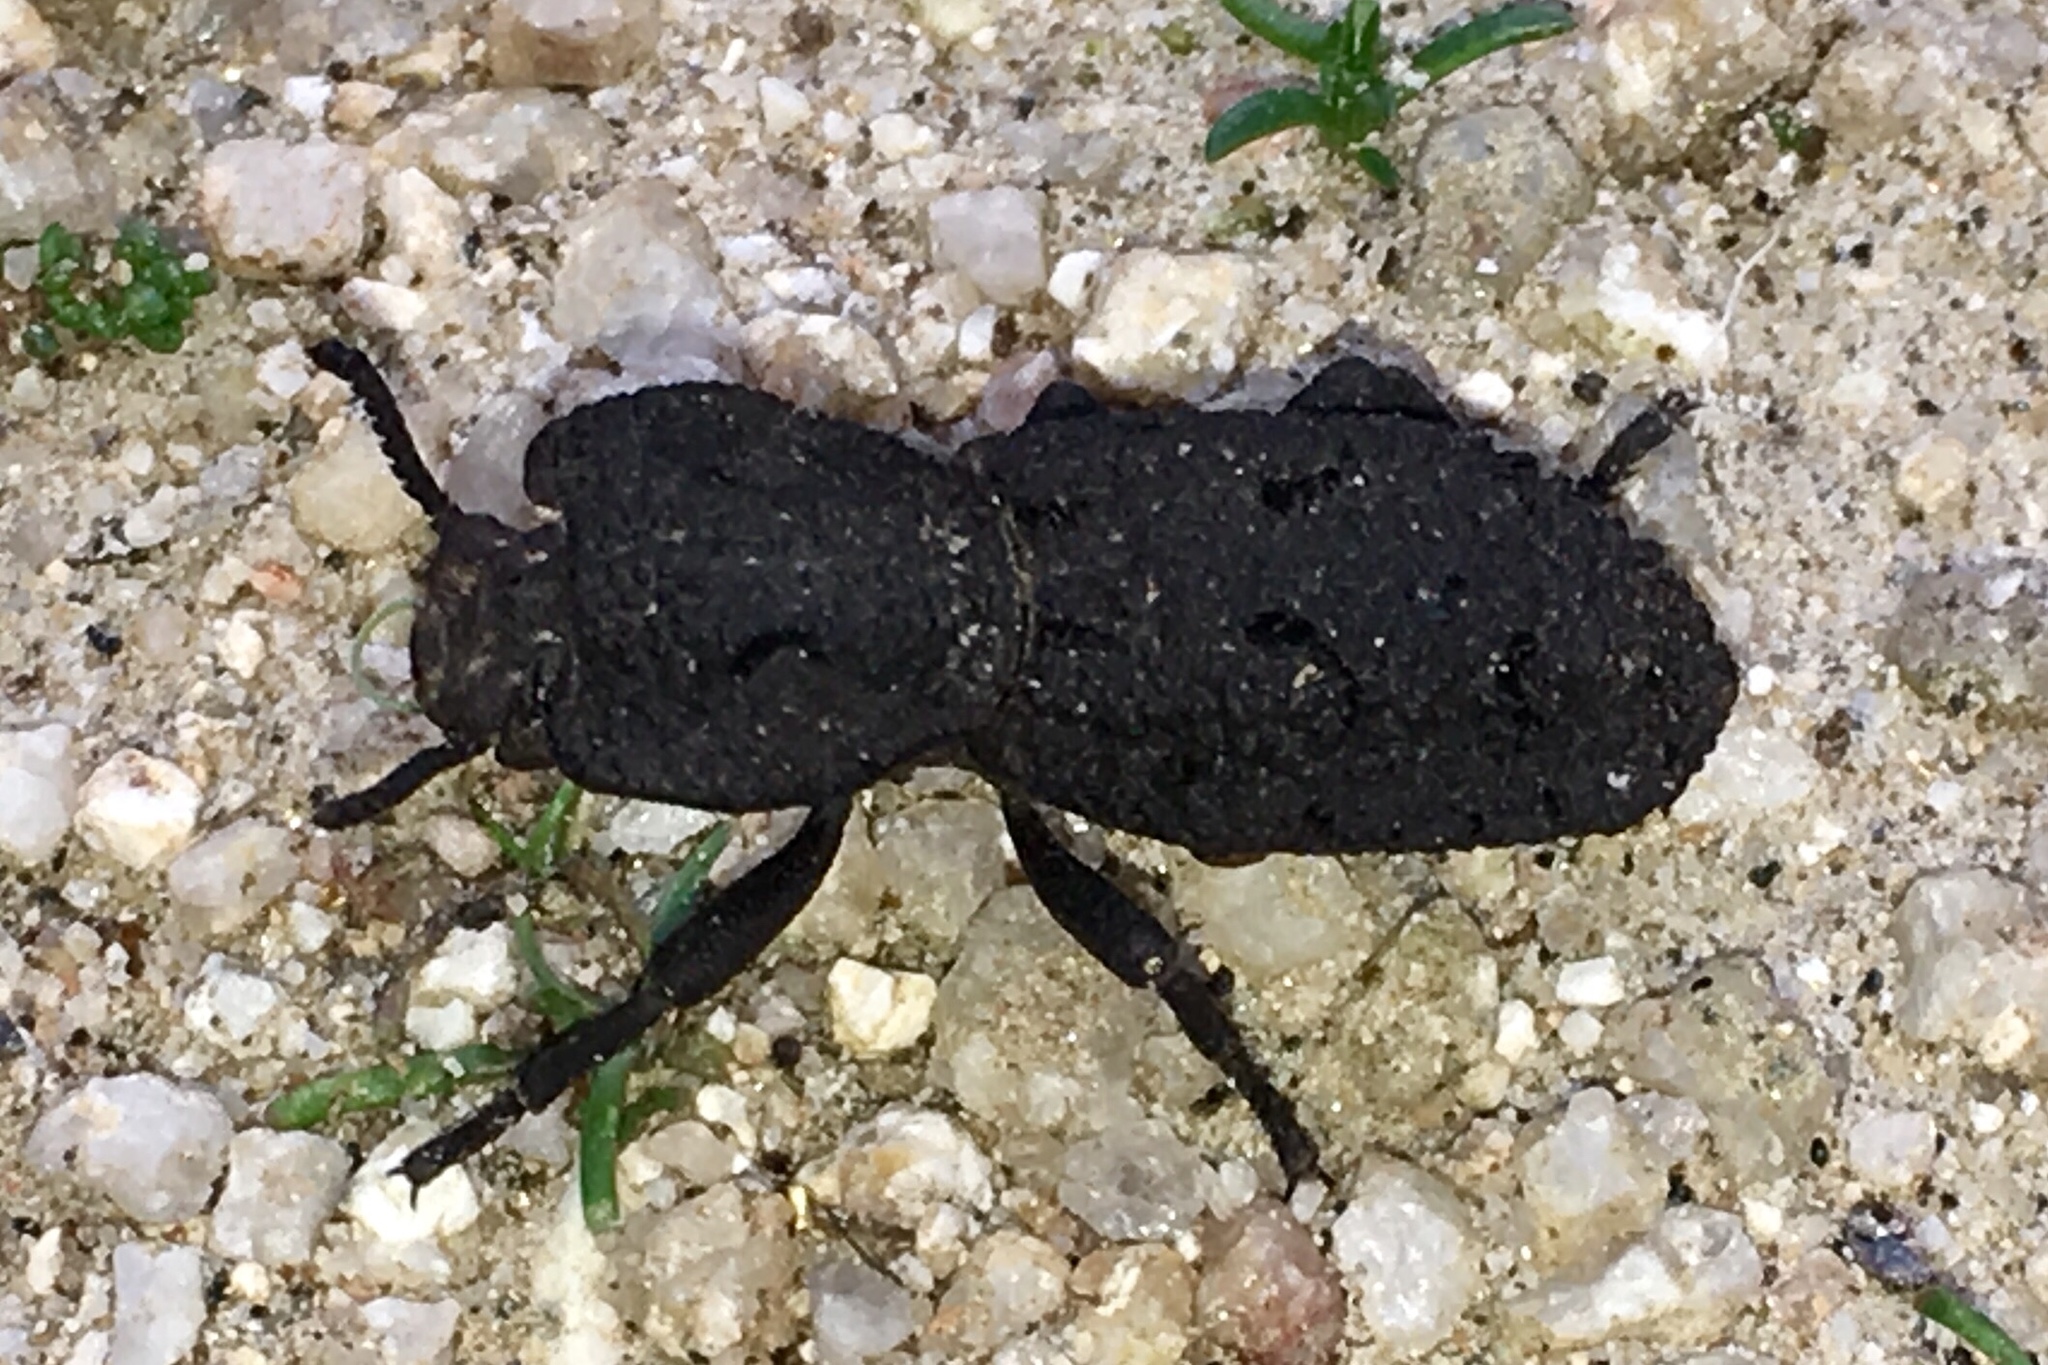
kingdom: Animalia
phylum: Arthropoda
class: Insecta
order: Coleoptera
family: Zopheridae
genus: Phloeodes
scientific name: Phloeodes diabolicus
